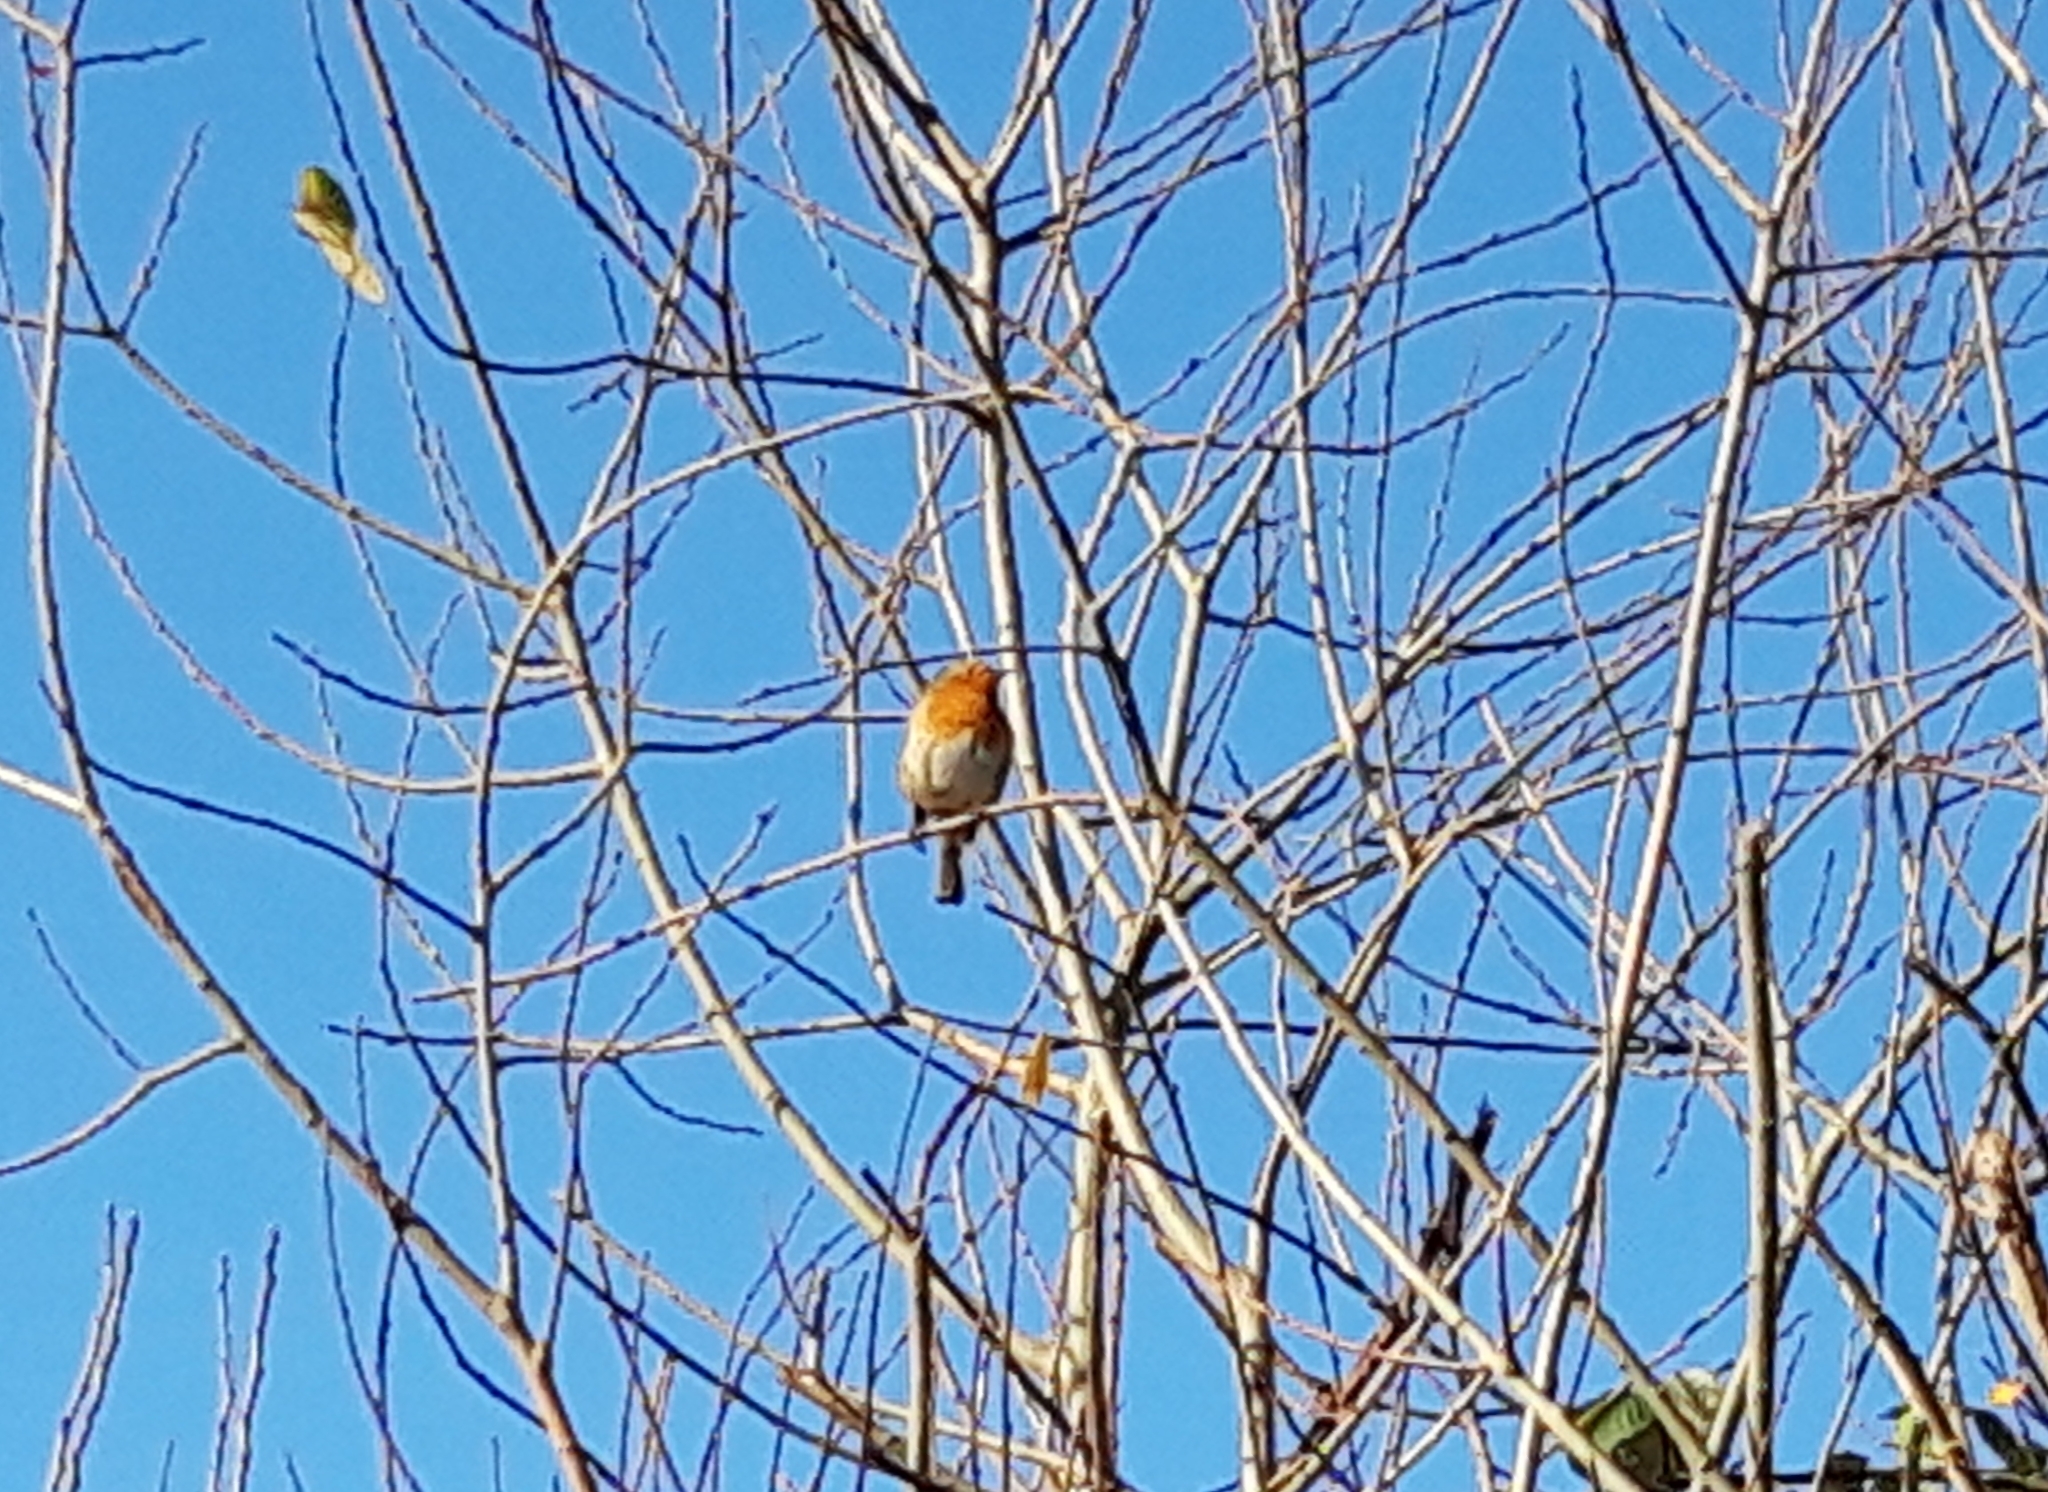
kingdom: Animalia
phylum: Chordata
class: Aves
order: Passeriformes
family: Muscicapidae
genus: Erithacus
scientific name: Erithacus rubecula
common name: European robin
